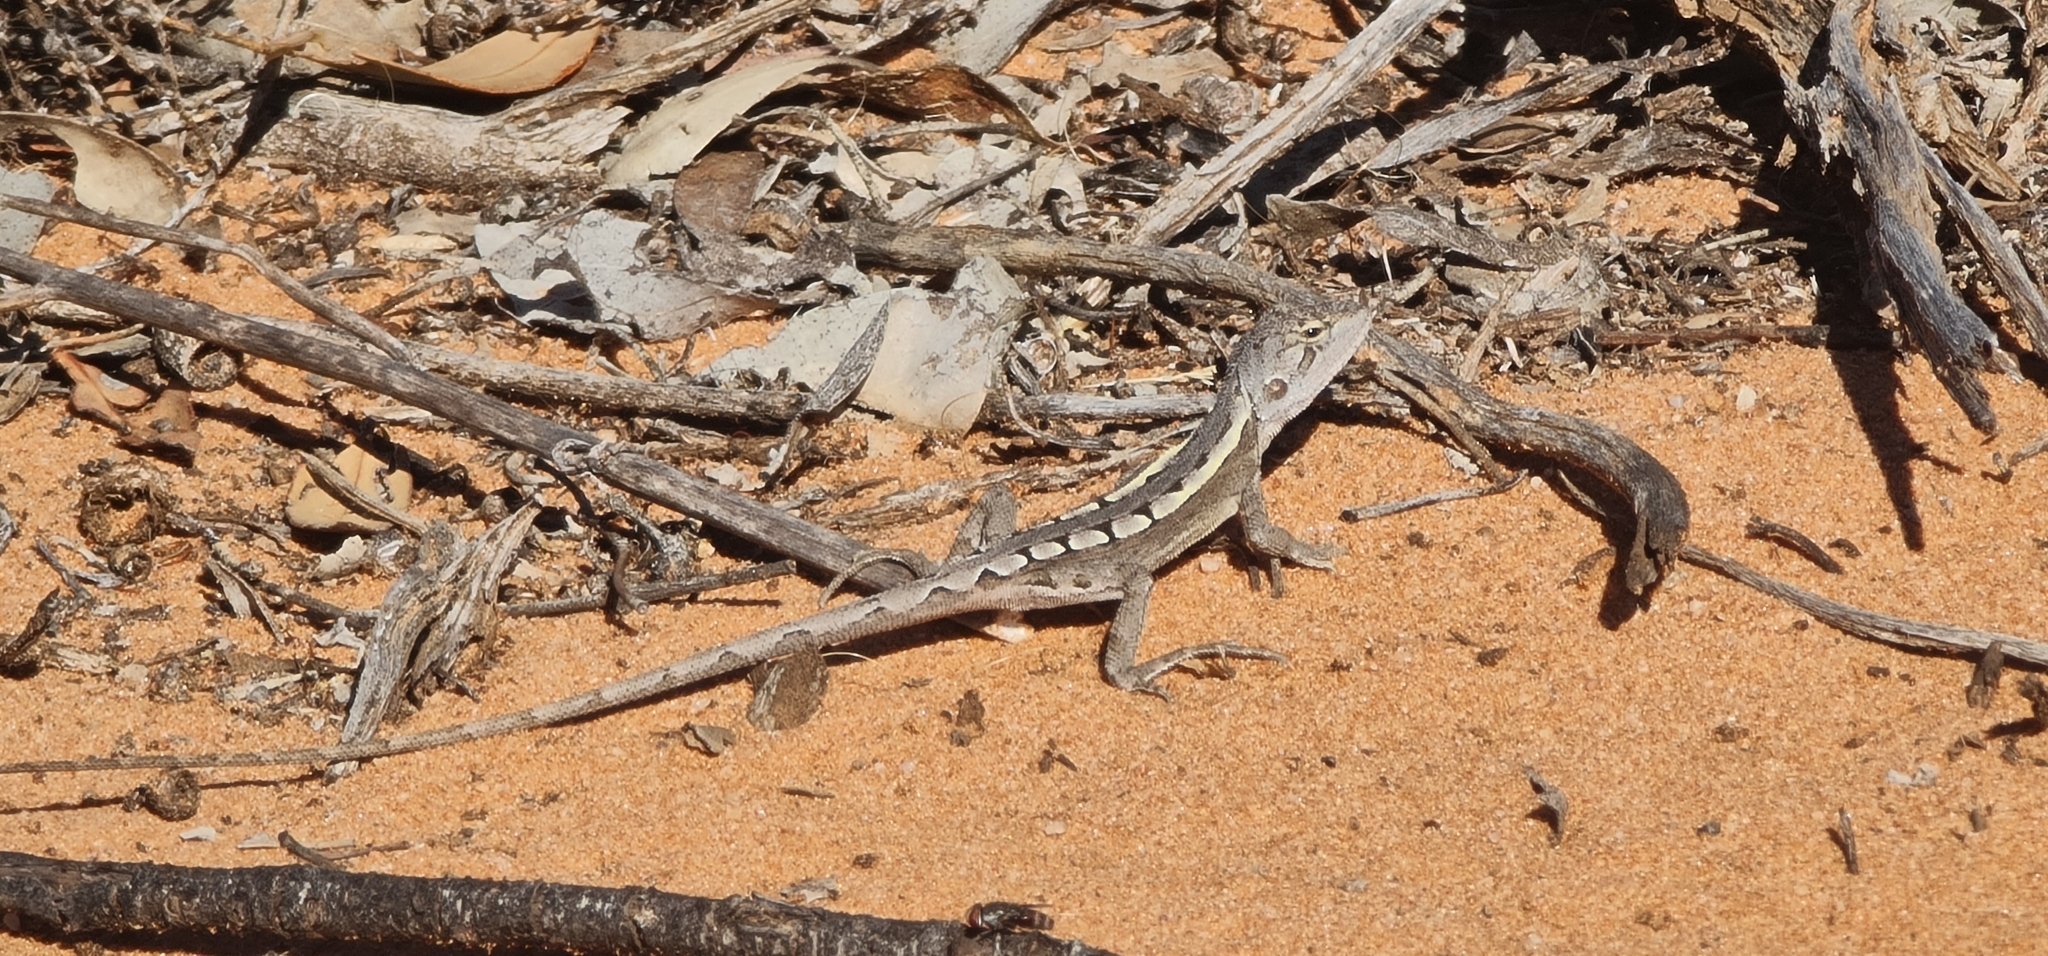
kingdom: Animalia
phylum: Chordata
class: Squamata
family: Agamidae
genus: Diporiphora
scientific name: Diporiphora nobbi
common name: Nobbi
